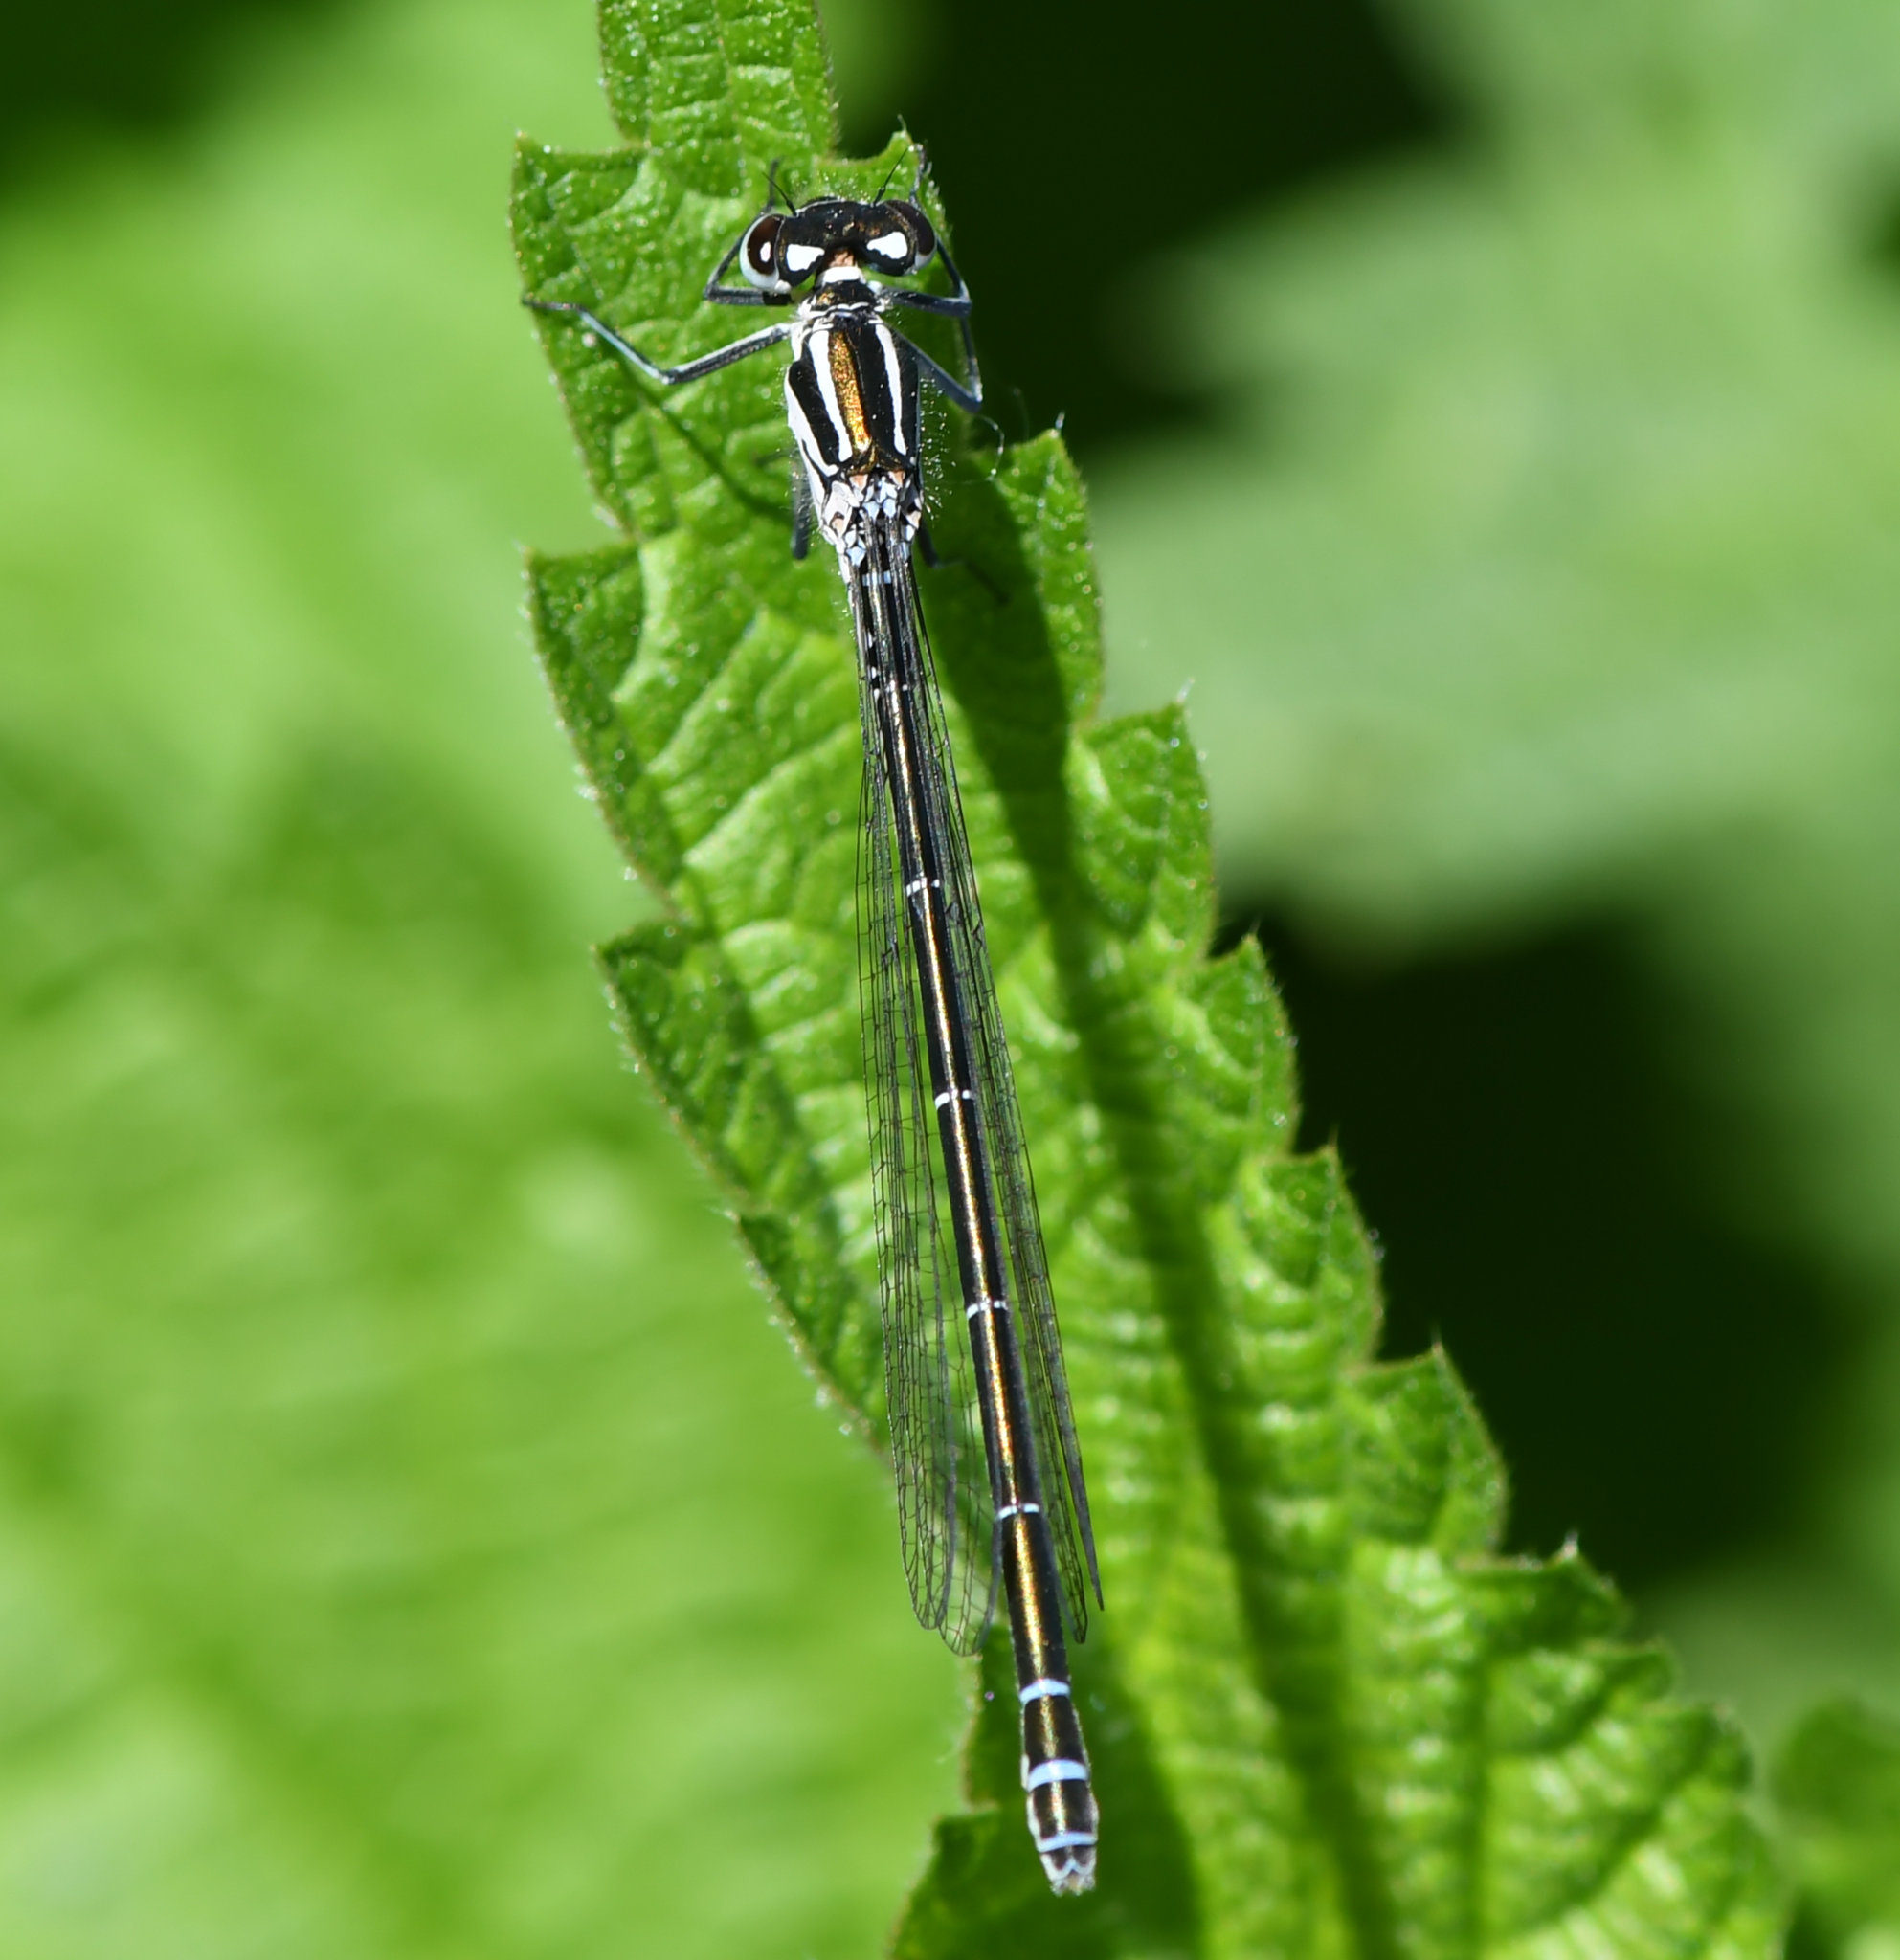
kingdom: Animalia
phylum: Arthropoda
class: Insecta
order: Odonata
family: Coenagrionidae
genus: Coenagrion
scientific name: Coenagrion puella
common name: Azure damselfly
